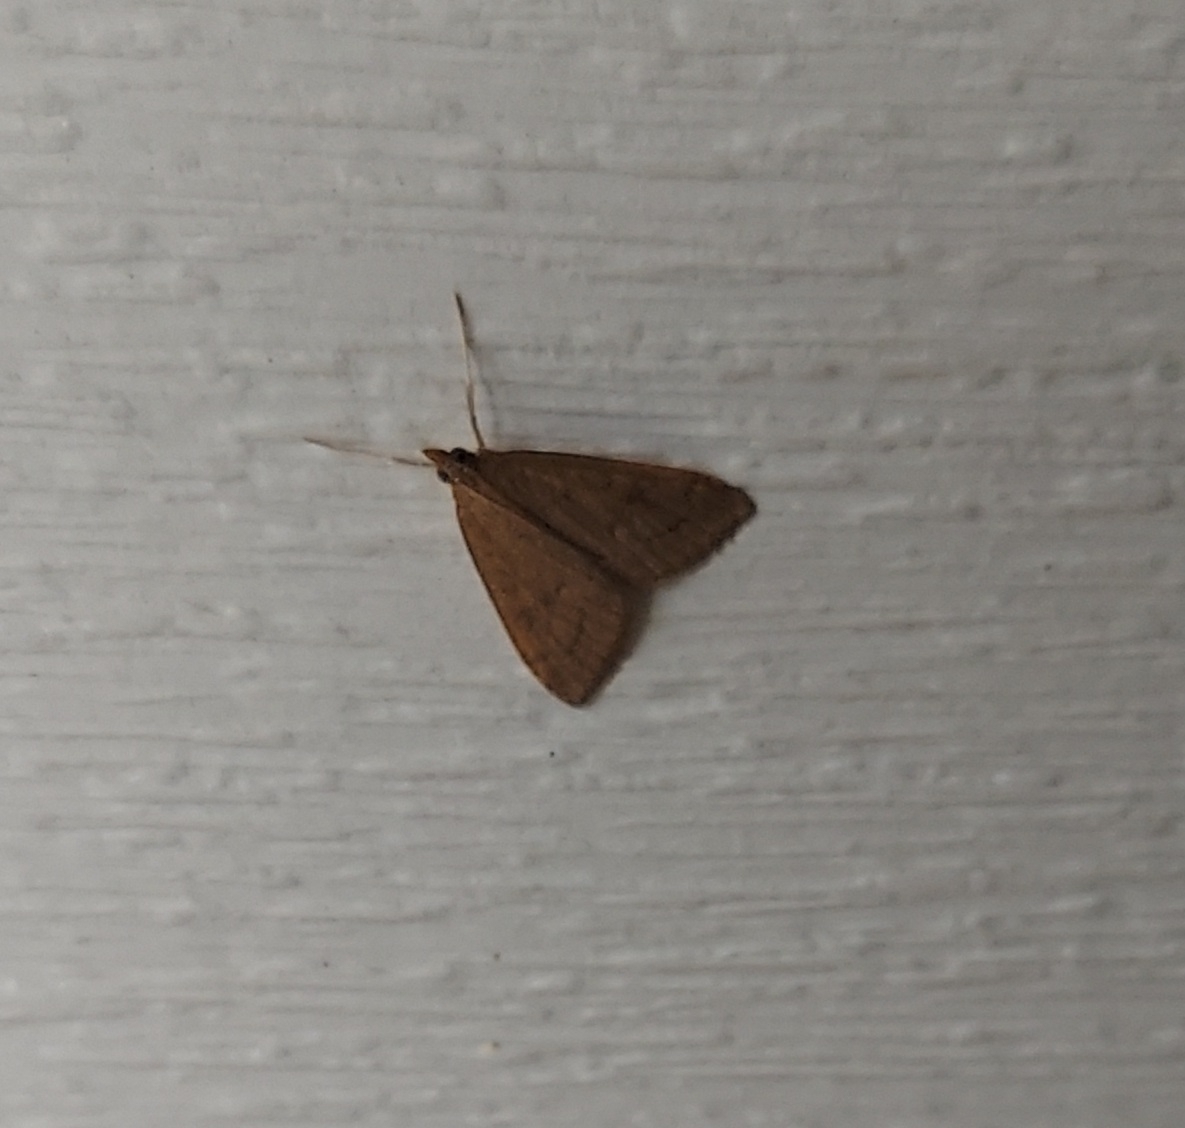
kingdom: Animalia
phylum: Arthropoda
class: Insecta
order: Lepidoptera
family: Crambidae
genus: Udea
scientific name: Udea rubigalis
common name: Celery leaftier moth
